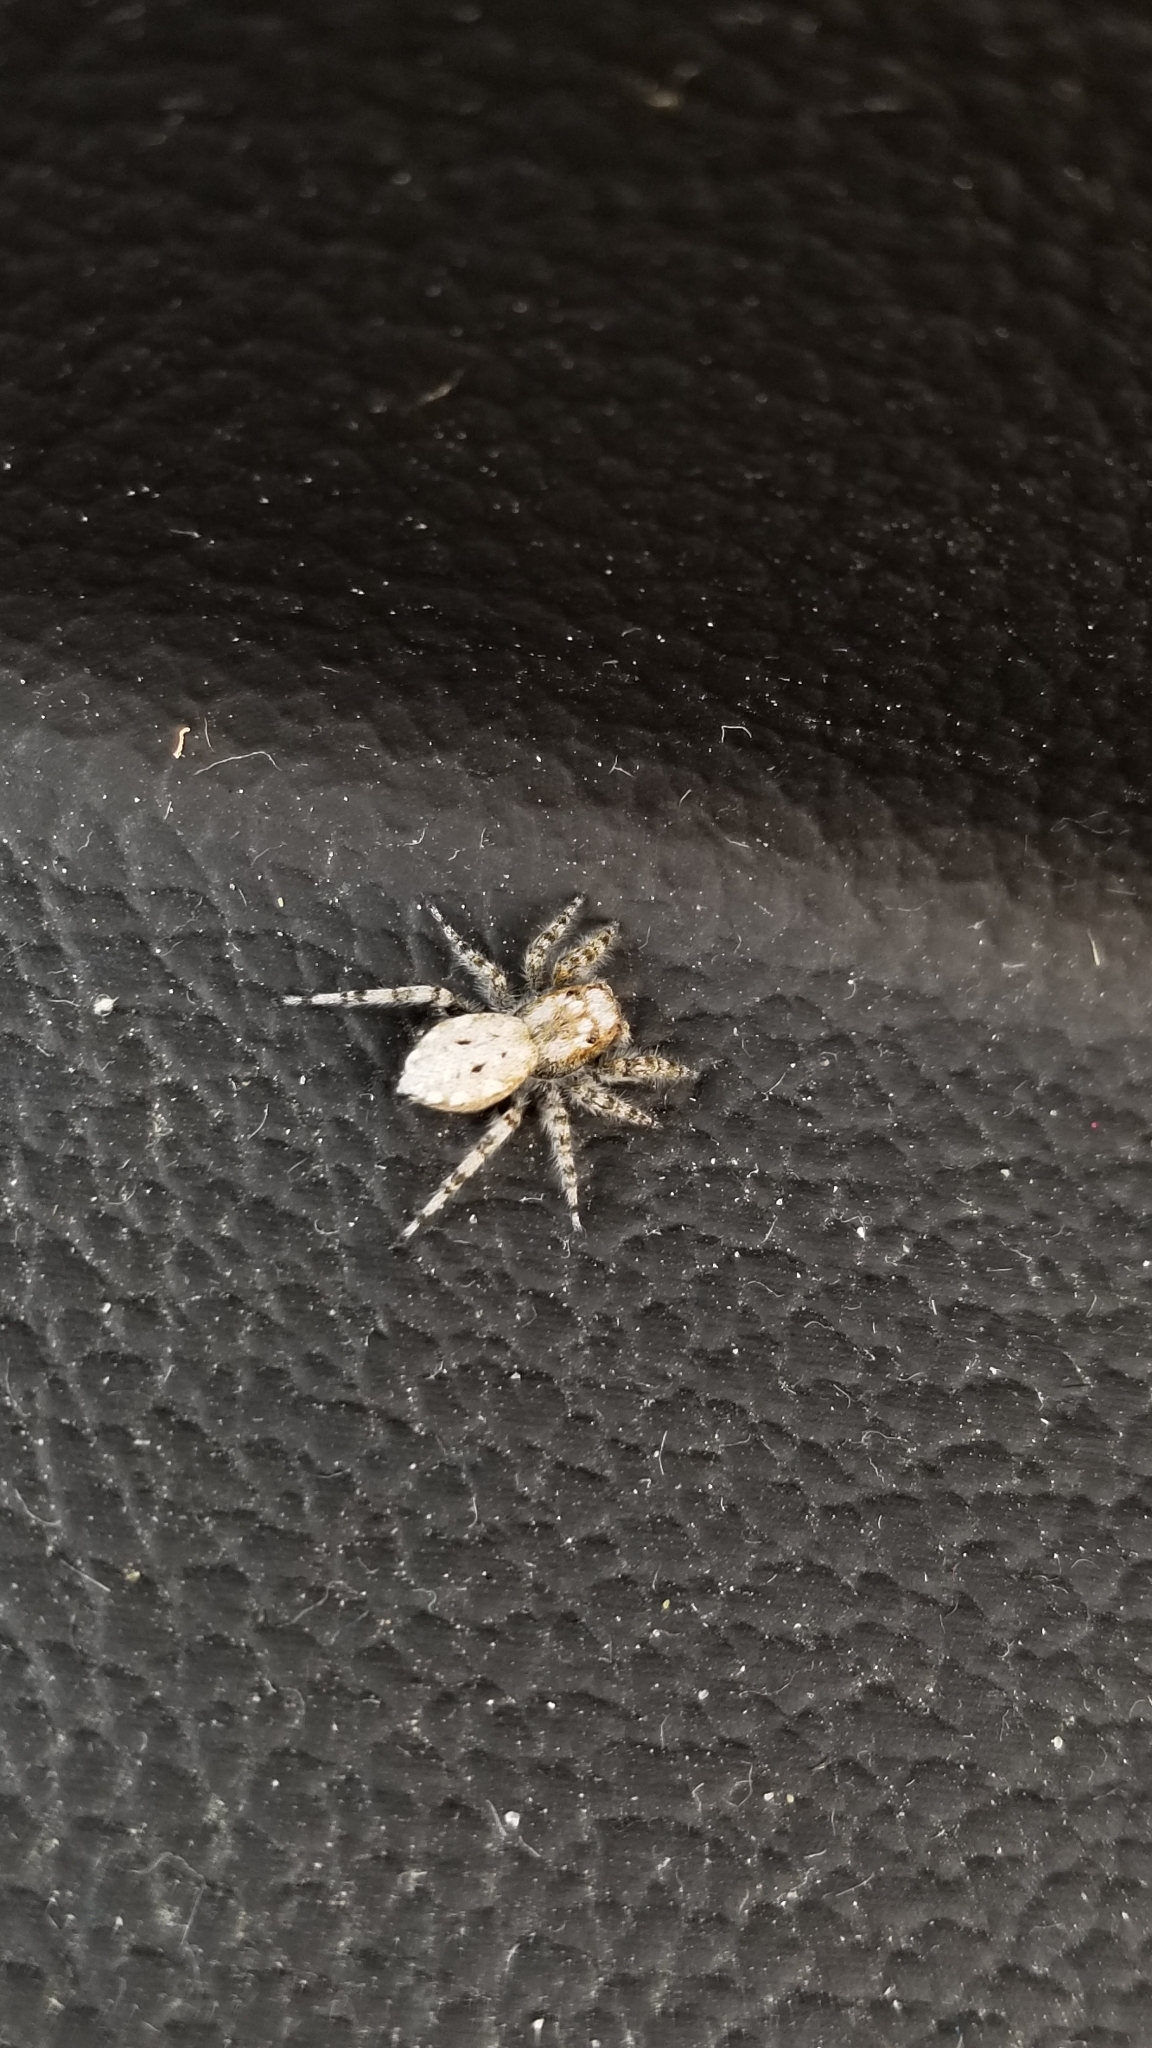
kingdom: Animalia
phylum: Arthropoda
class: Arachnida
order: Araneae
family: Salticidae
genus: Terralonus
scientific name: Terralonus californicus
